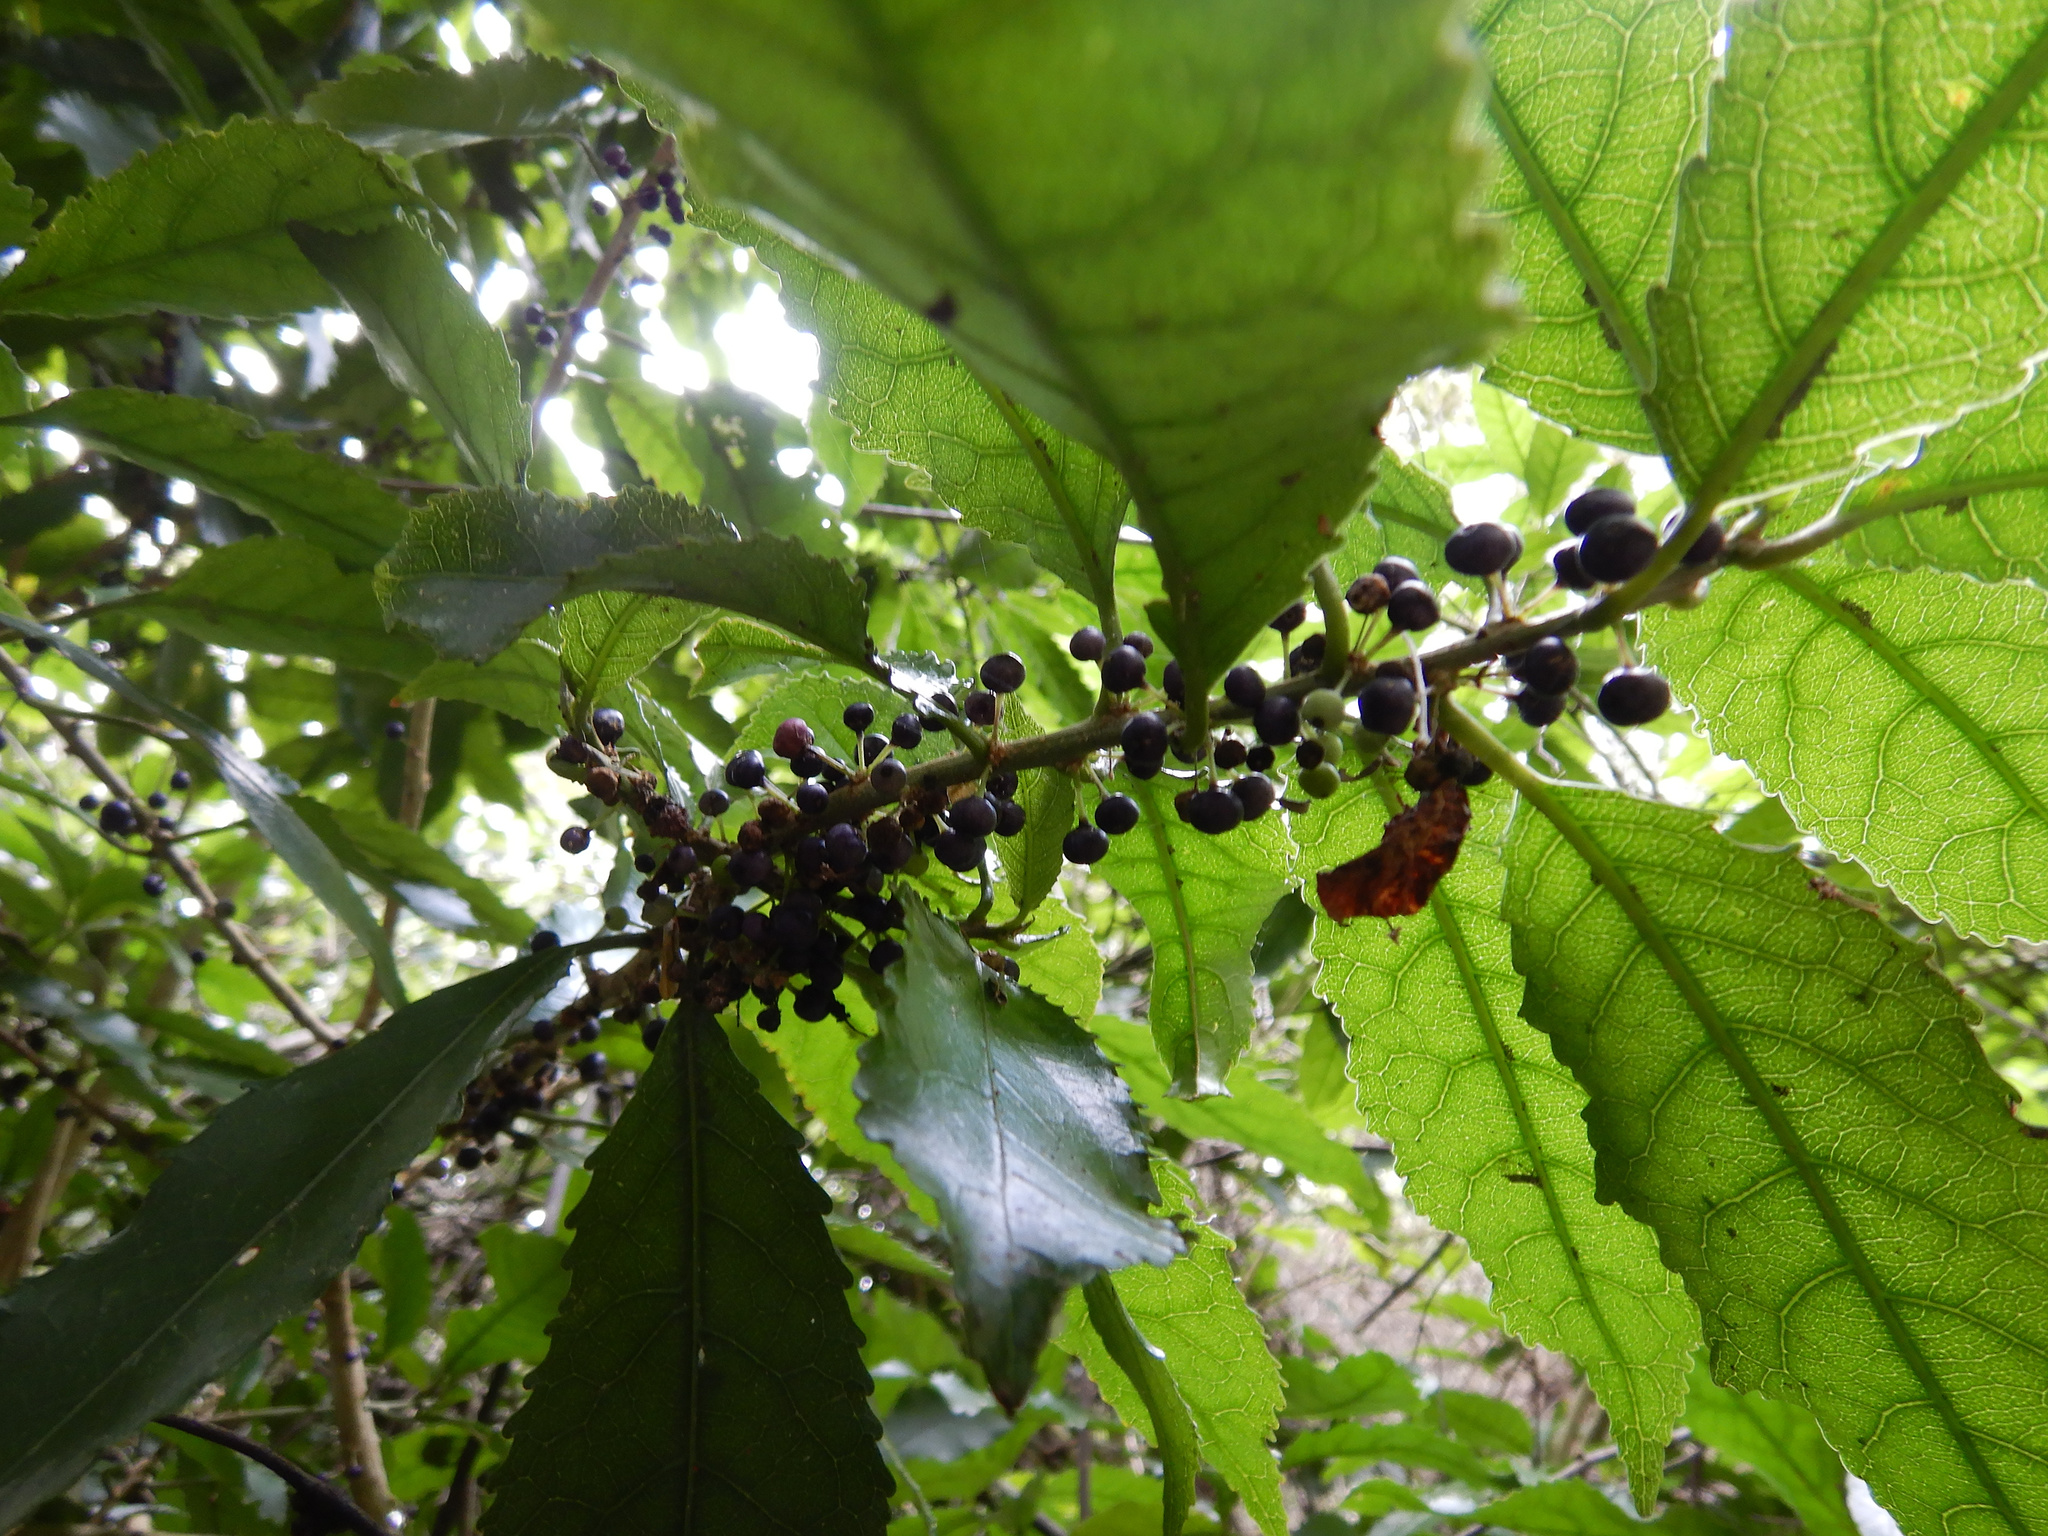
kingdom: Plantae
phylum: Tracheophyta
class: Magnoliopsida
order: Malpighiales
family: Violaceae
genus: Melicytus
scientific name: Melicytus ramiflorus
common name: Mahoe
